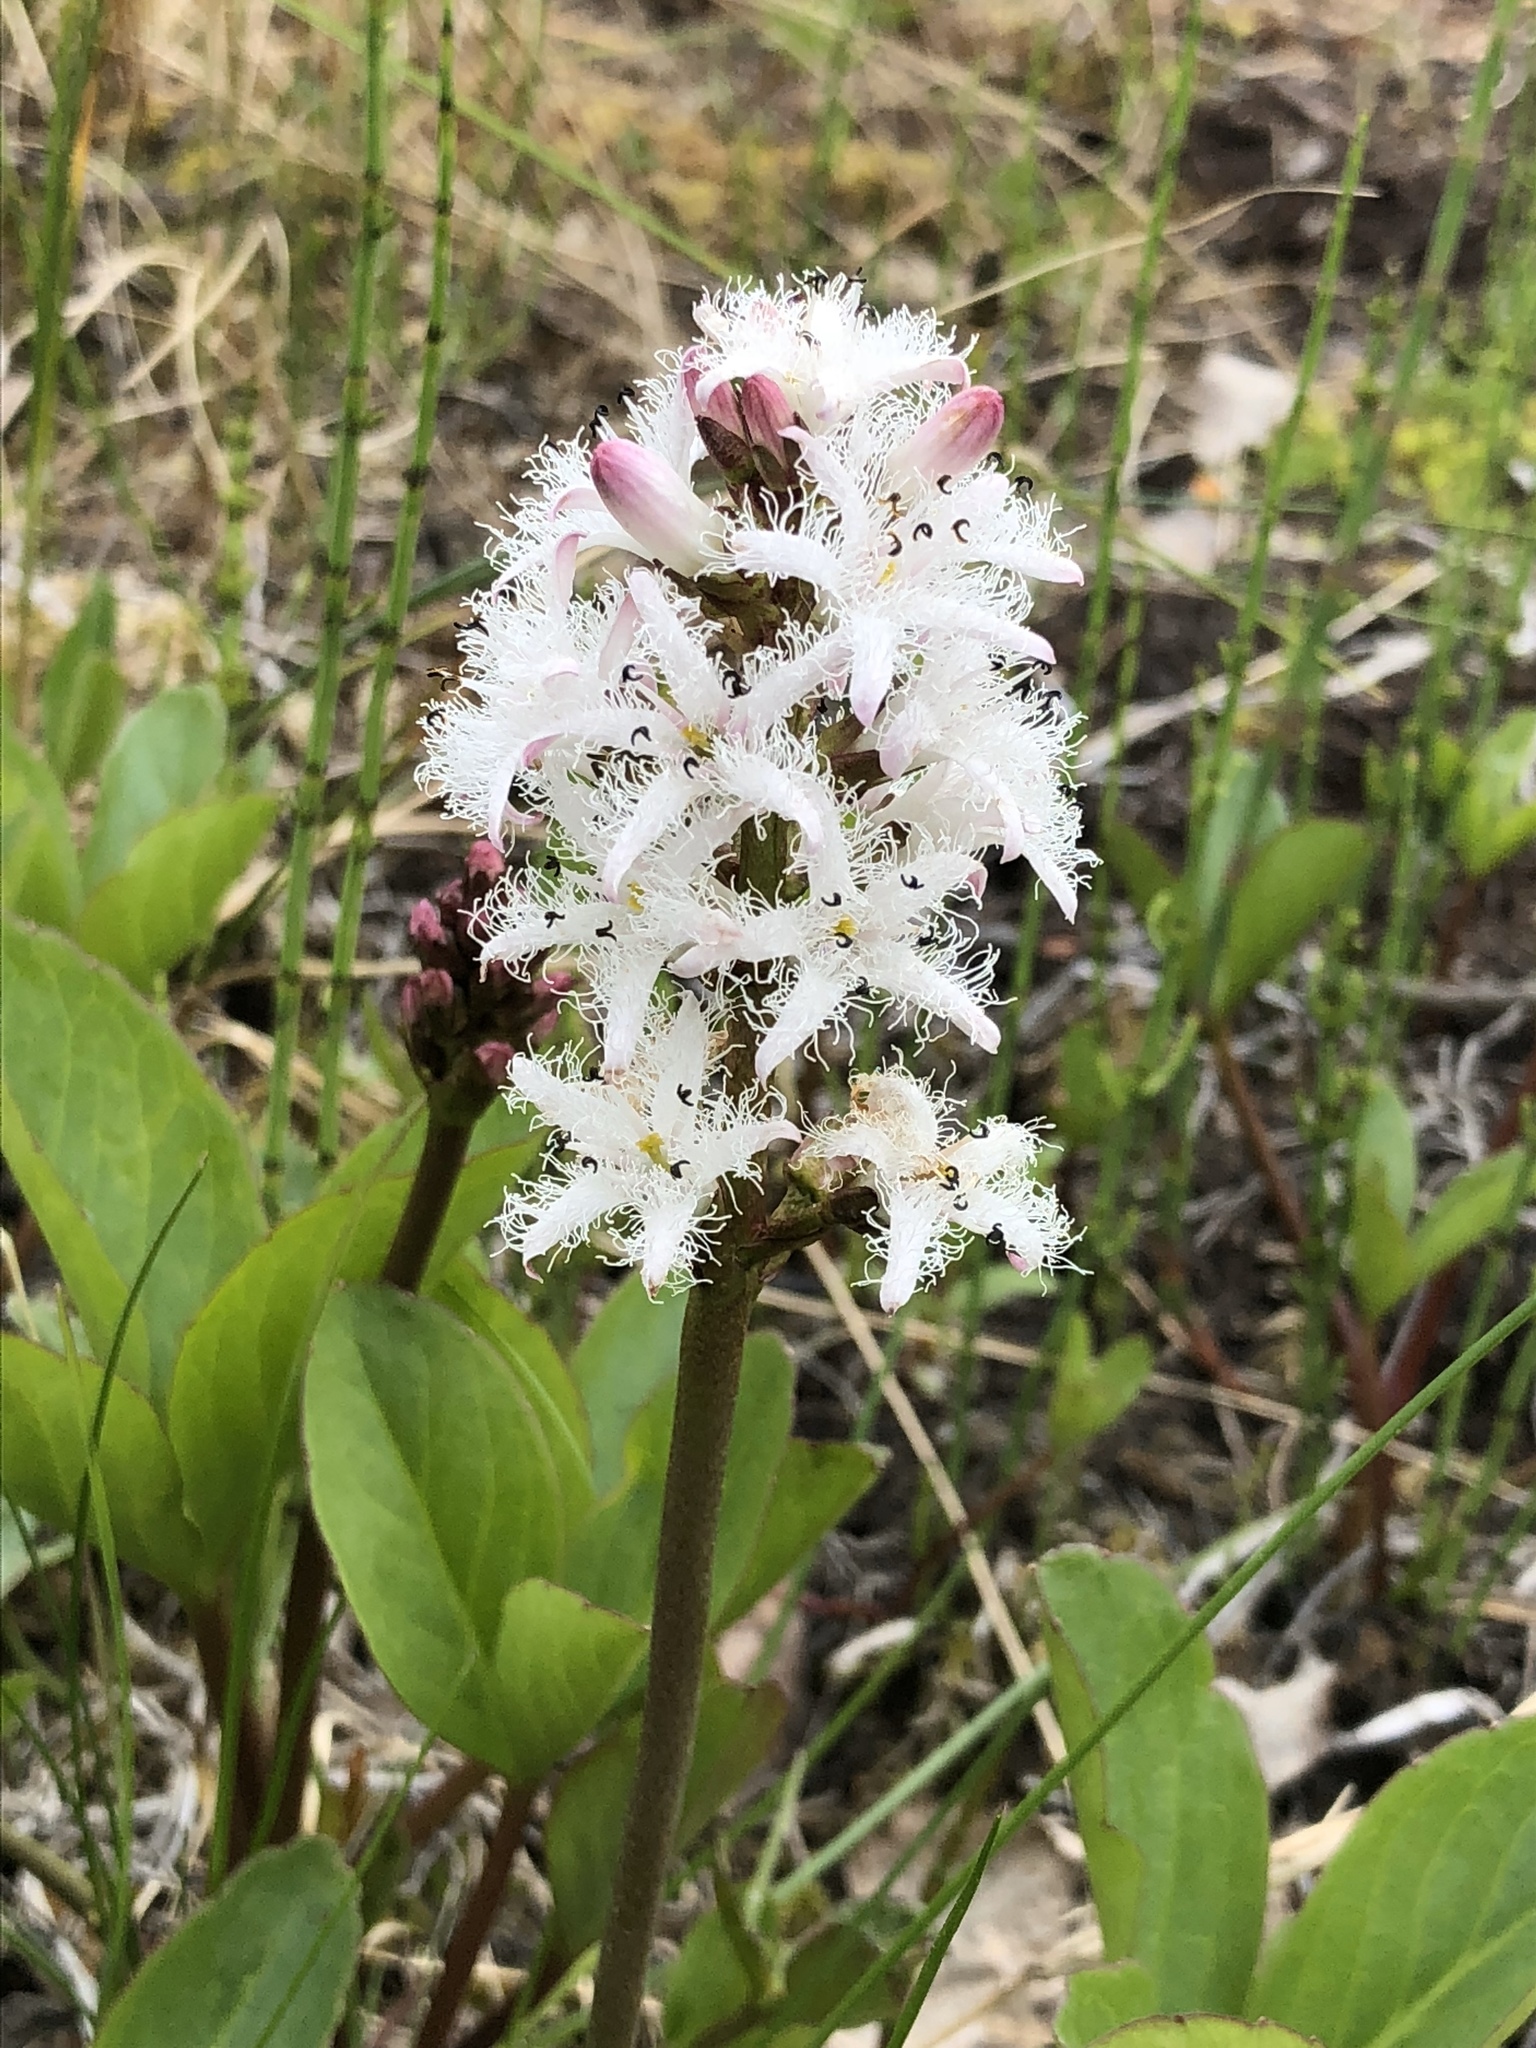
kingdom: Plantae
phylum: Tracheophyta
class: Magnoliopsida
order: Asterales
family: Menyanthaceae
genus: Menyanthes
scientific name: Menyanthes trifoliata
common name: Bogbean
